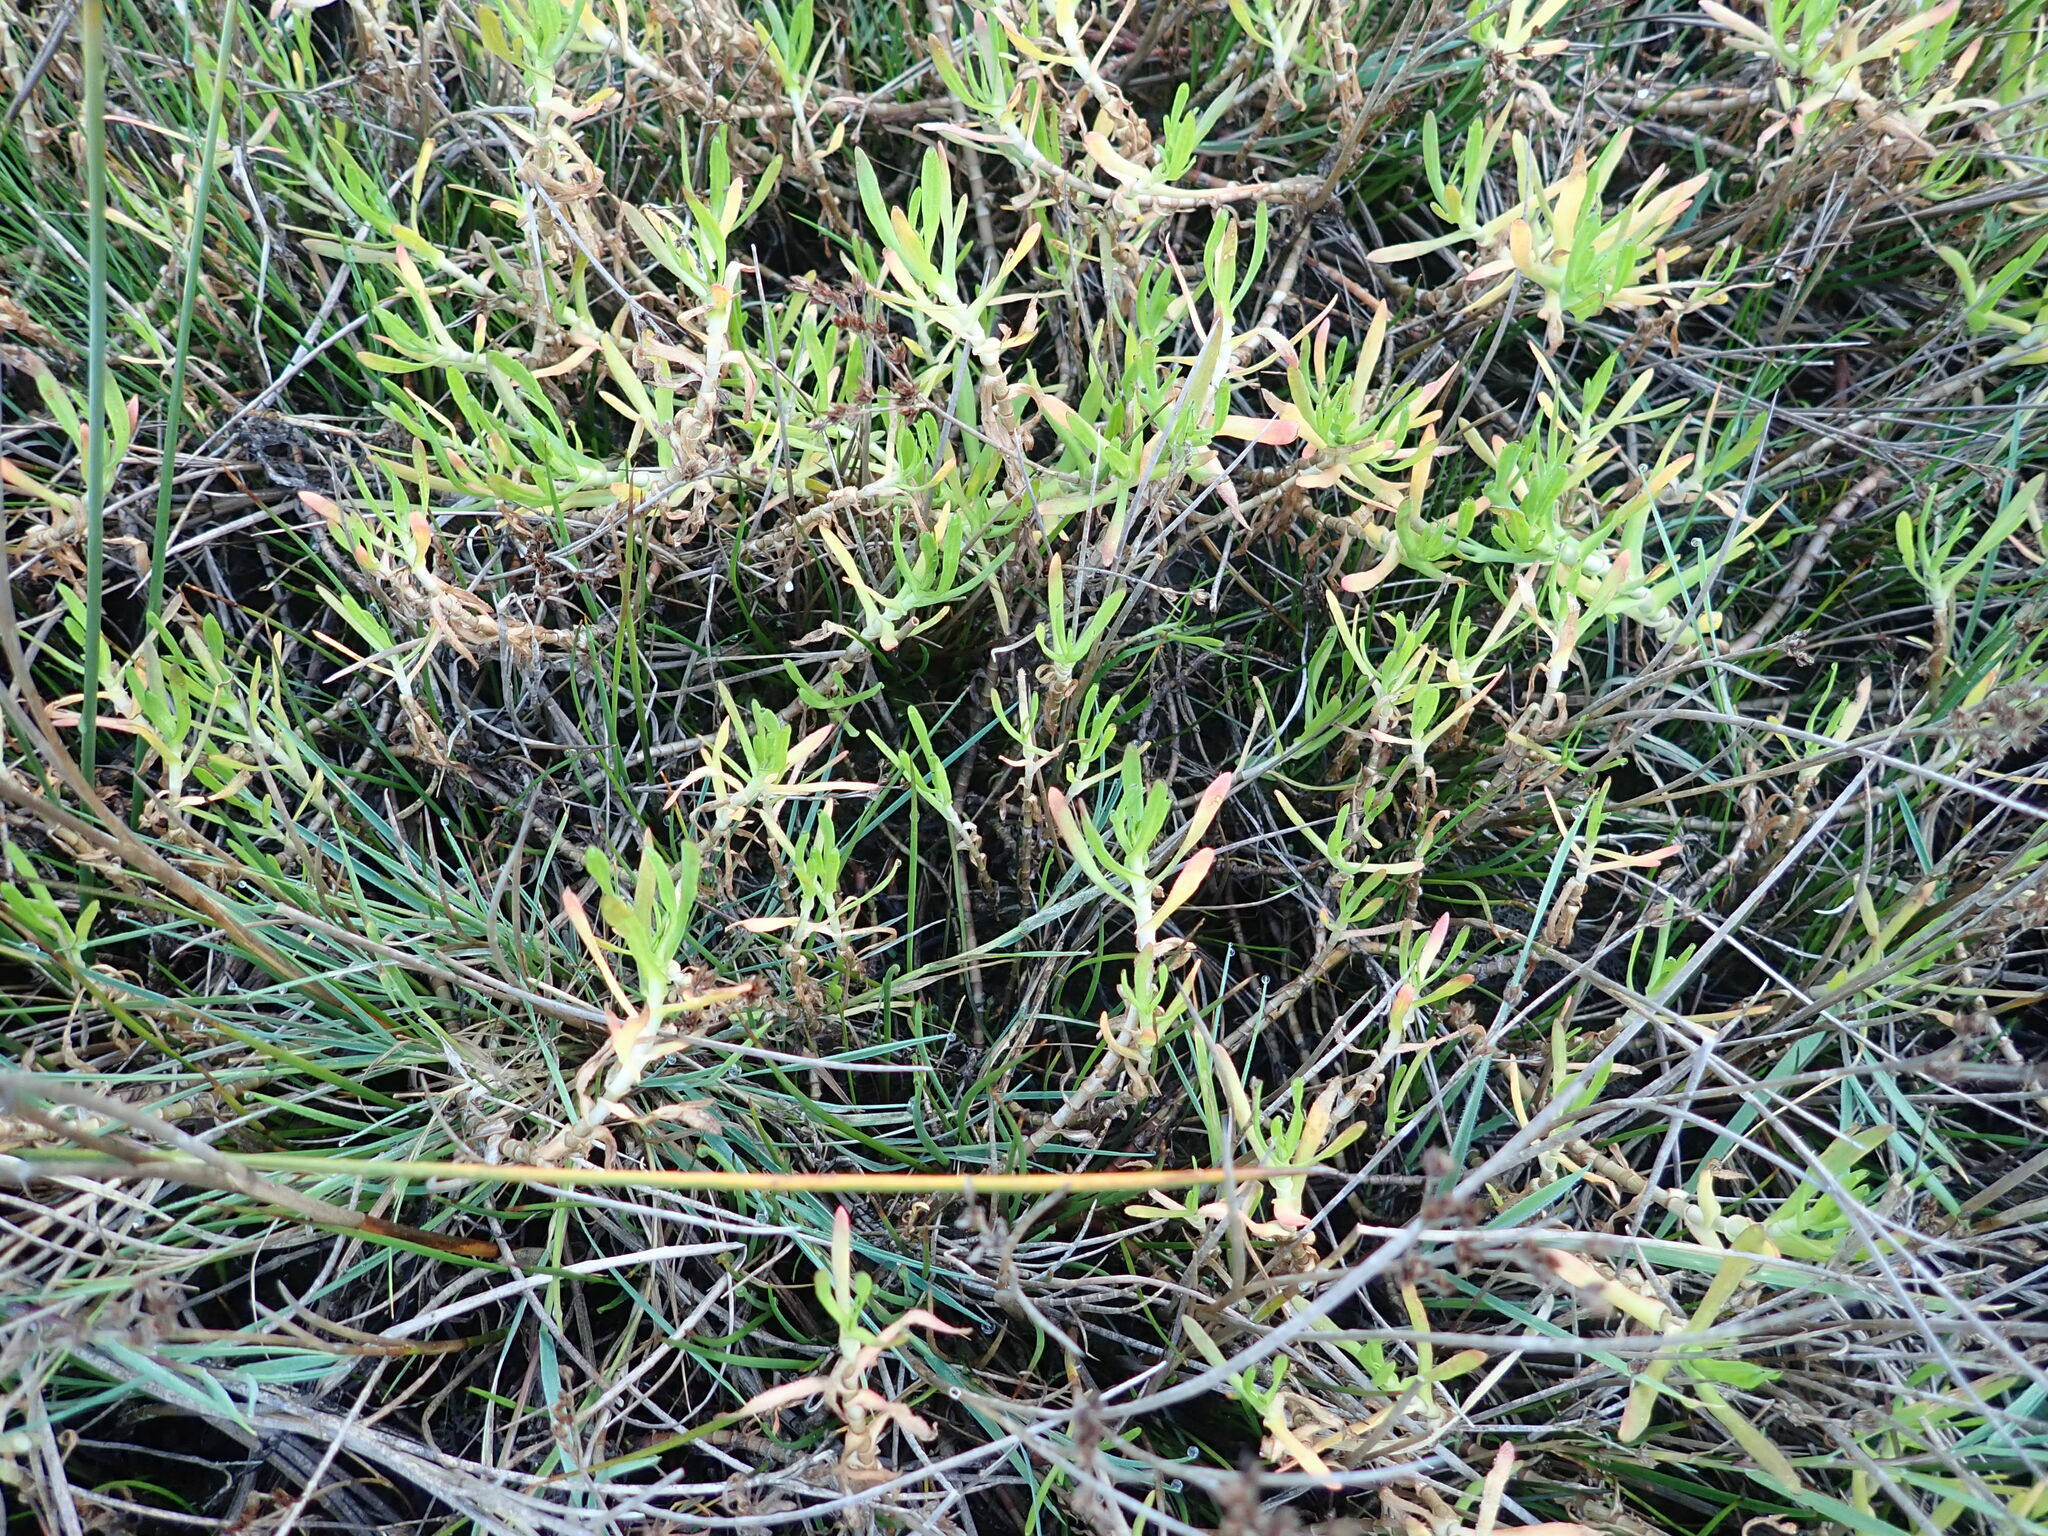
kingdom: Plantae
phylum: Tracheophyta
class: Magnoliopsida
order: Asterales
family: Asteraceae
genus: Cotula
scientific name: Cotula coronopifolia
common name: Buttonweed
